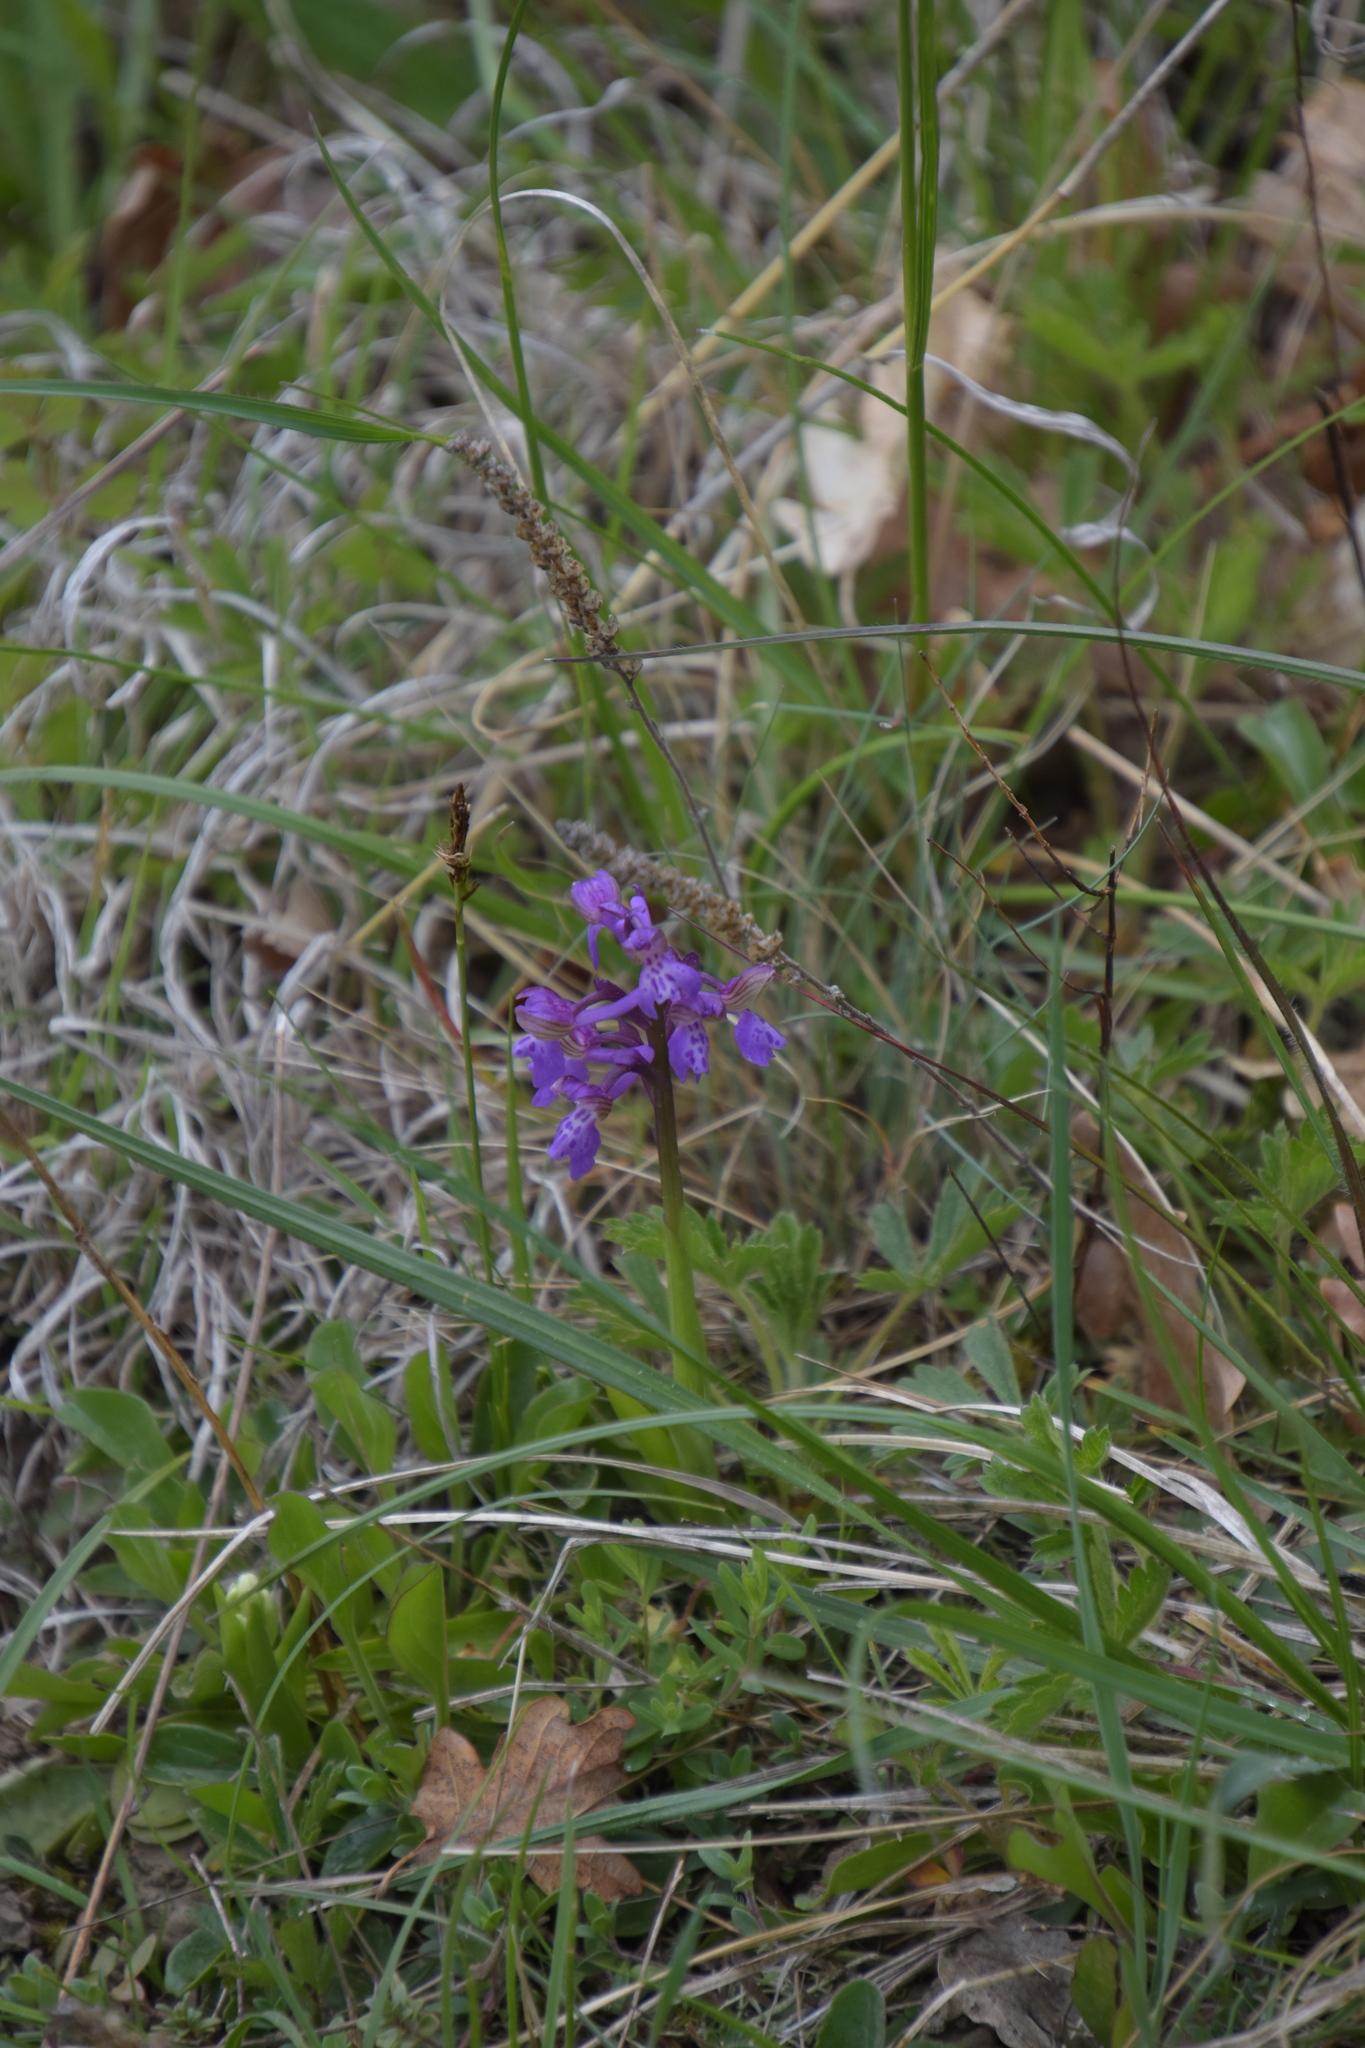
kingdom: Plantae
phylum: Tracheophyta
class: Liliopsida
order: Asparagales
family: Orchidaceae
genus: Anacamptis
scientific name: Anacamptis morio
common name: Green-winged orchid
